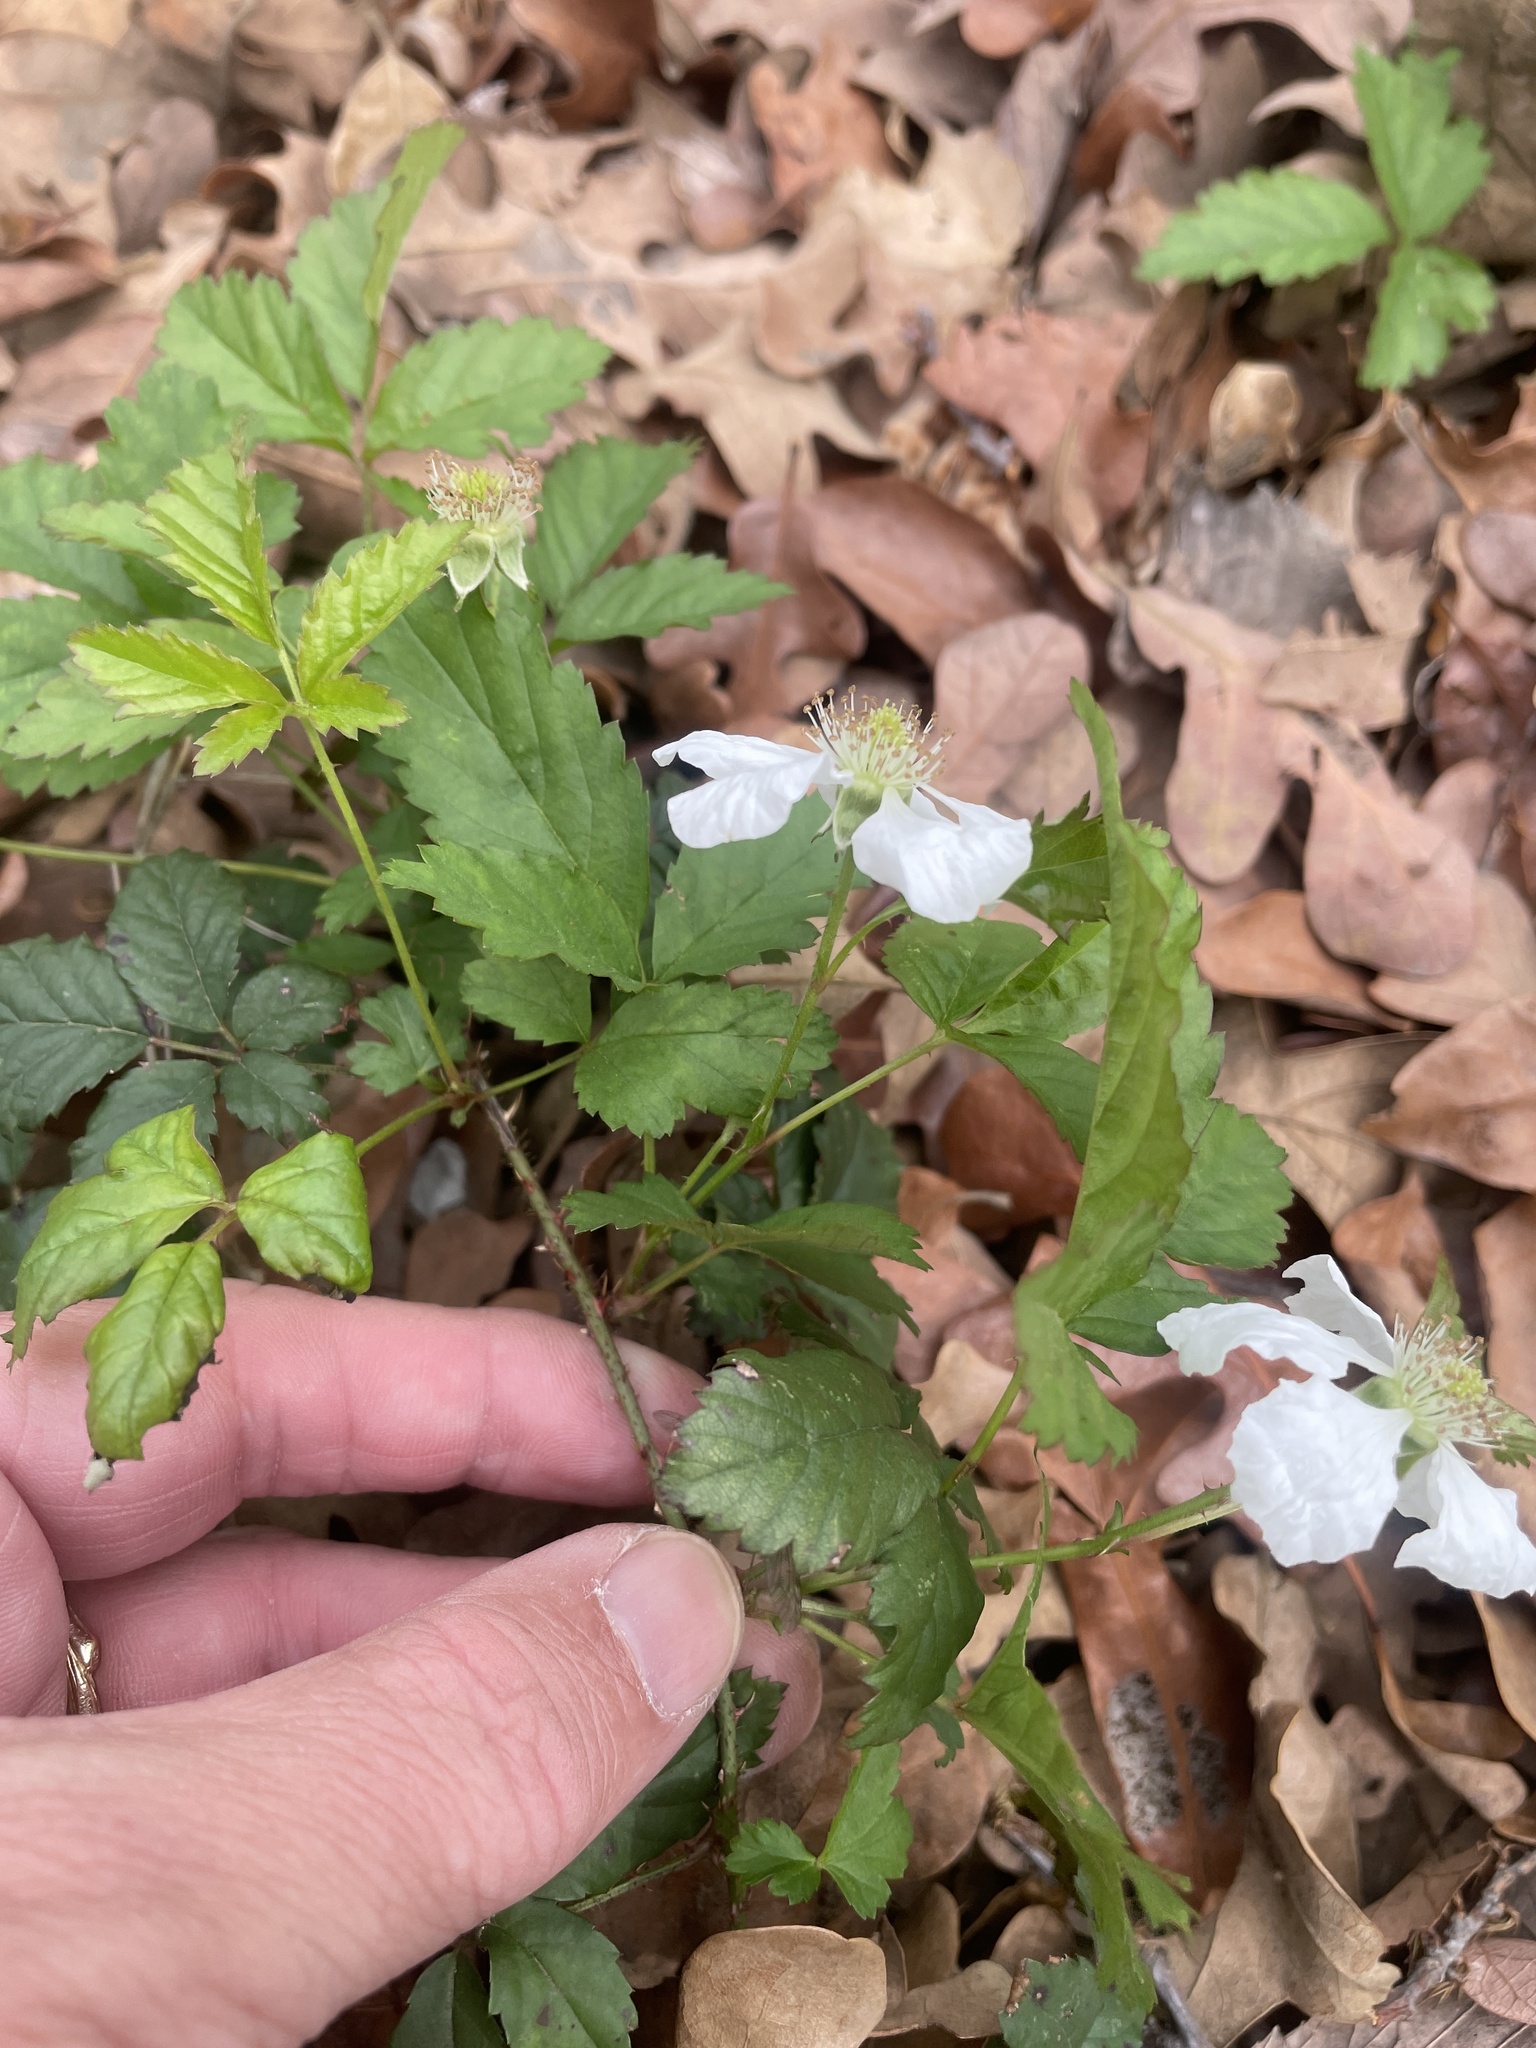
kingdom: Plantae
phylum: Tracheophyta
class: Magnoliopsida
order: Rosales
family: Rosaceae
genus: Rubus
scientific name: Rubus trivialis
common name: Southern dewberry
